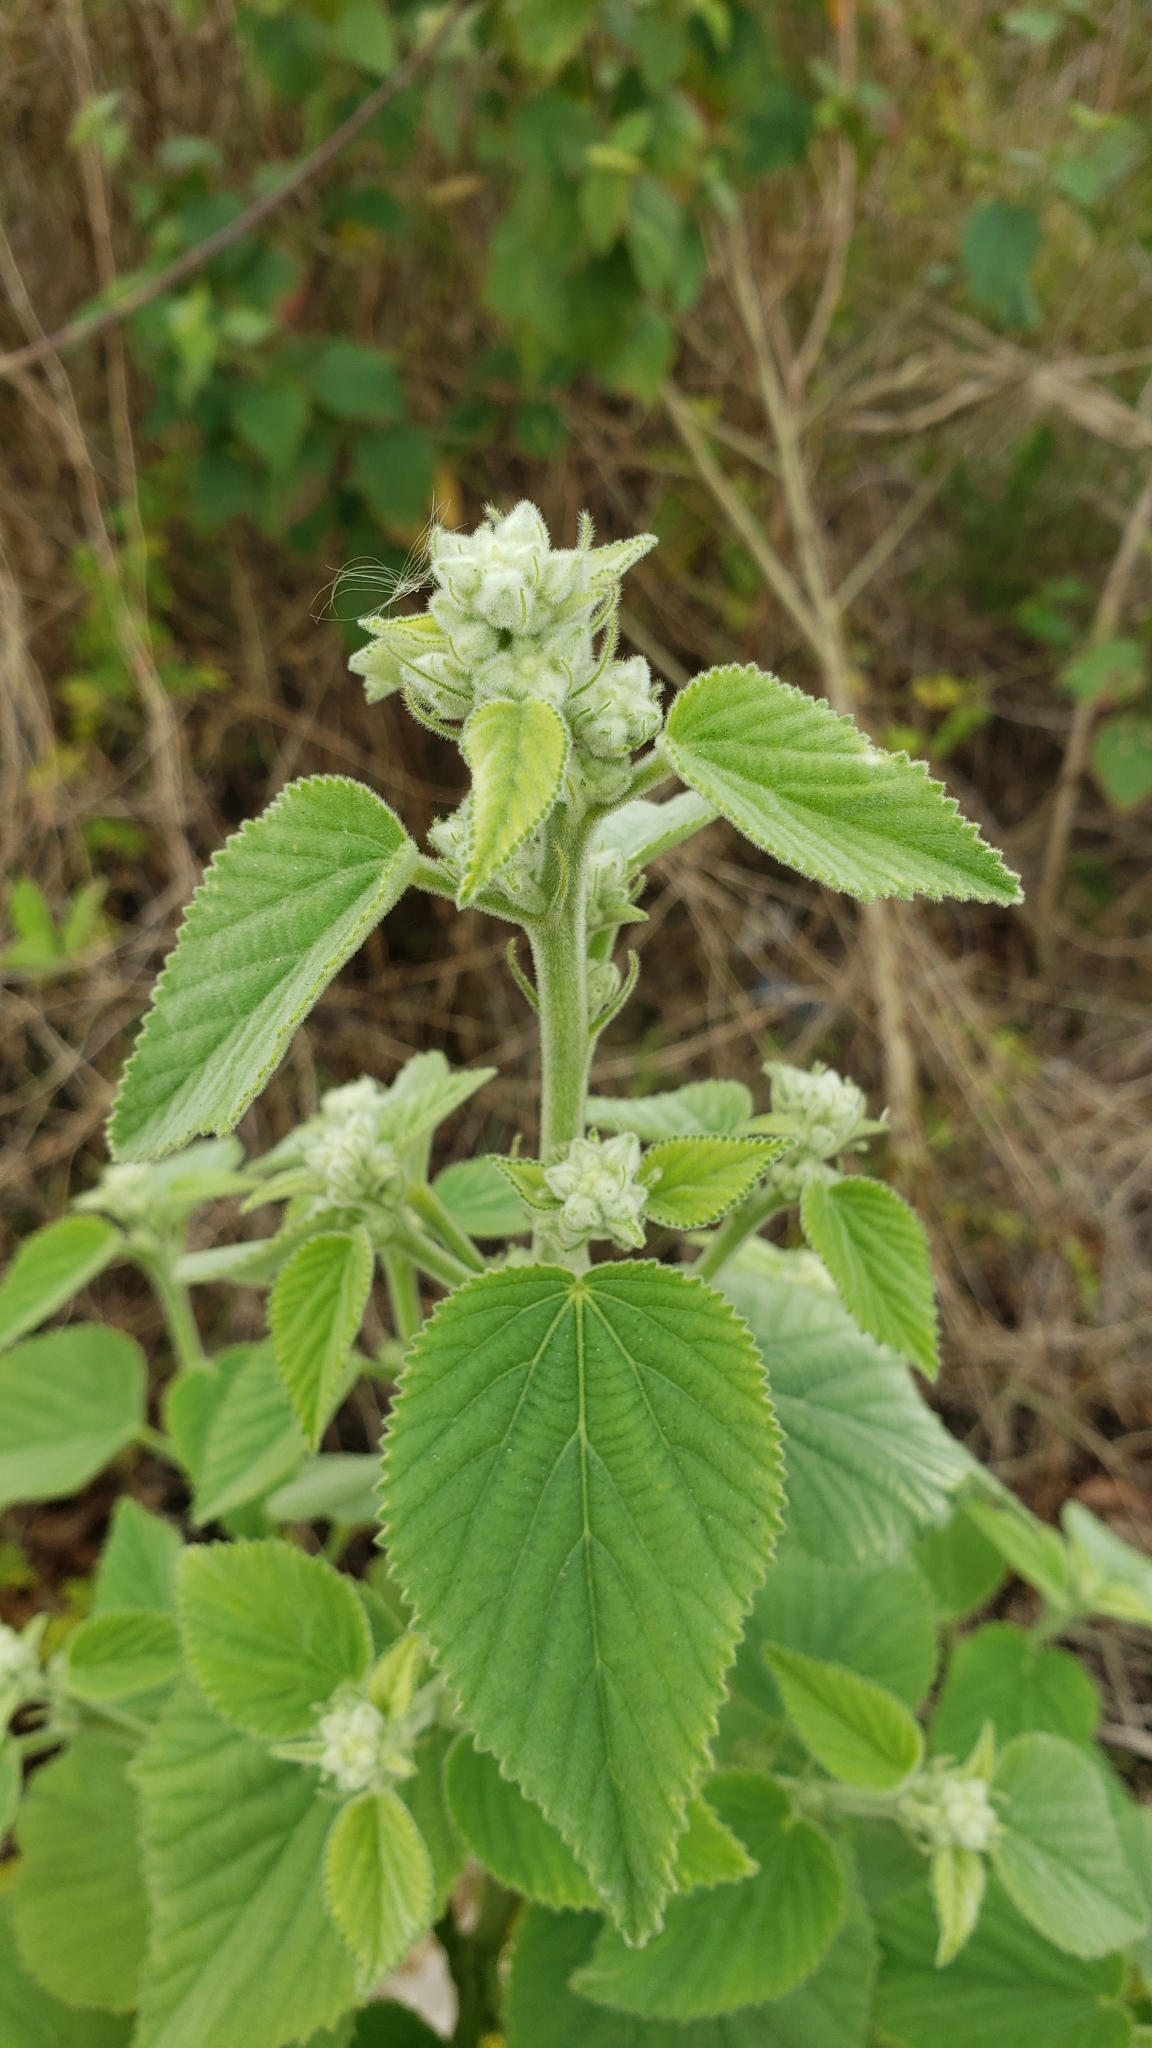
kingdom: Plantae
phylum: Tracheophyta
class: Magnoliopsida
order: Malvales
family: Malvaceae
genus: Sida
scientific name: Sida cordifolia
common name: Ilima
